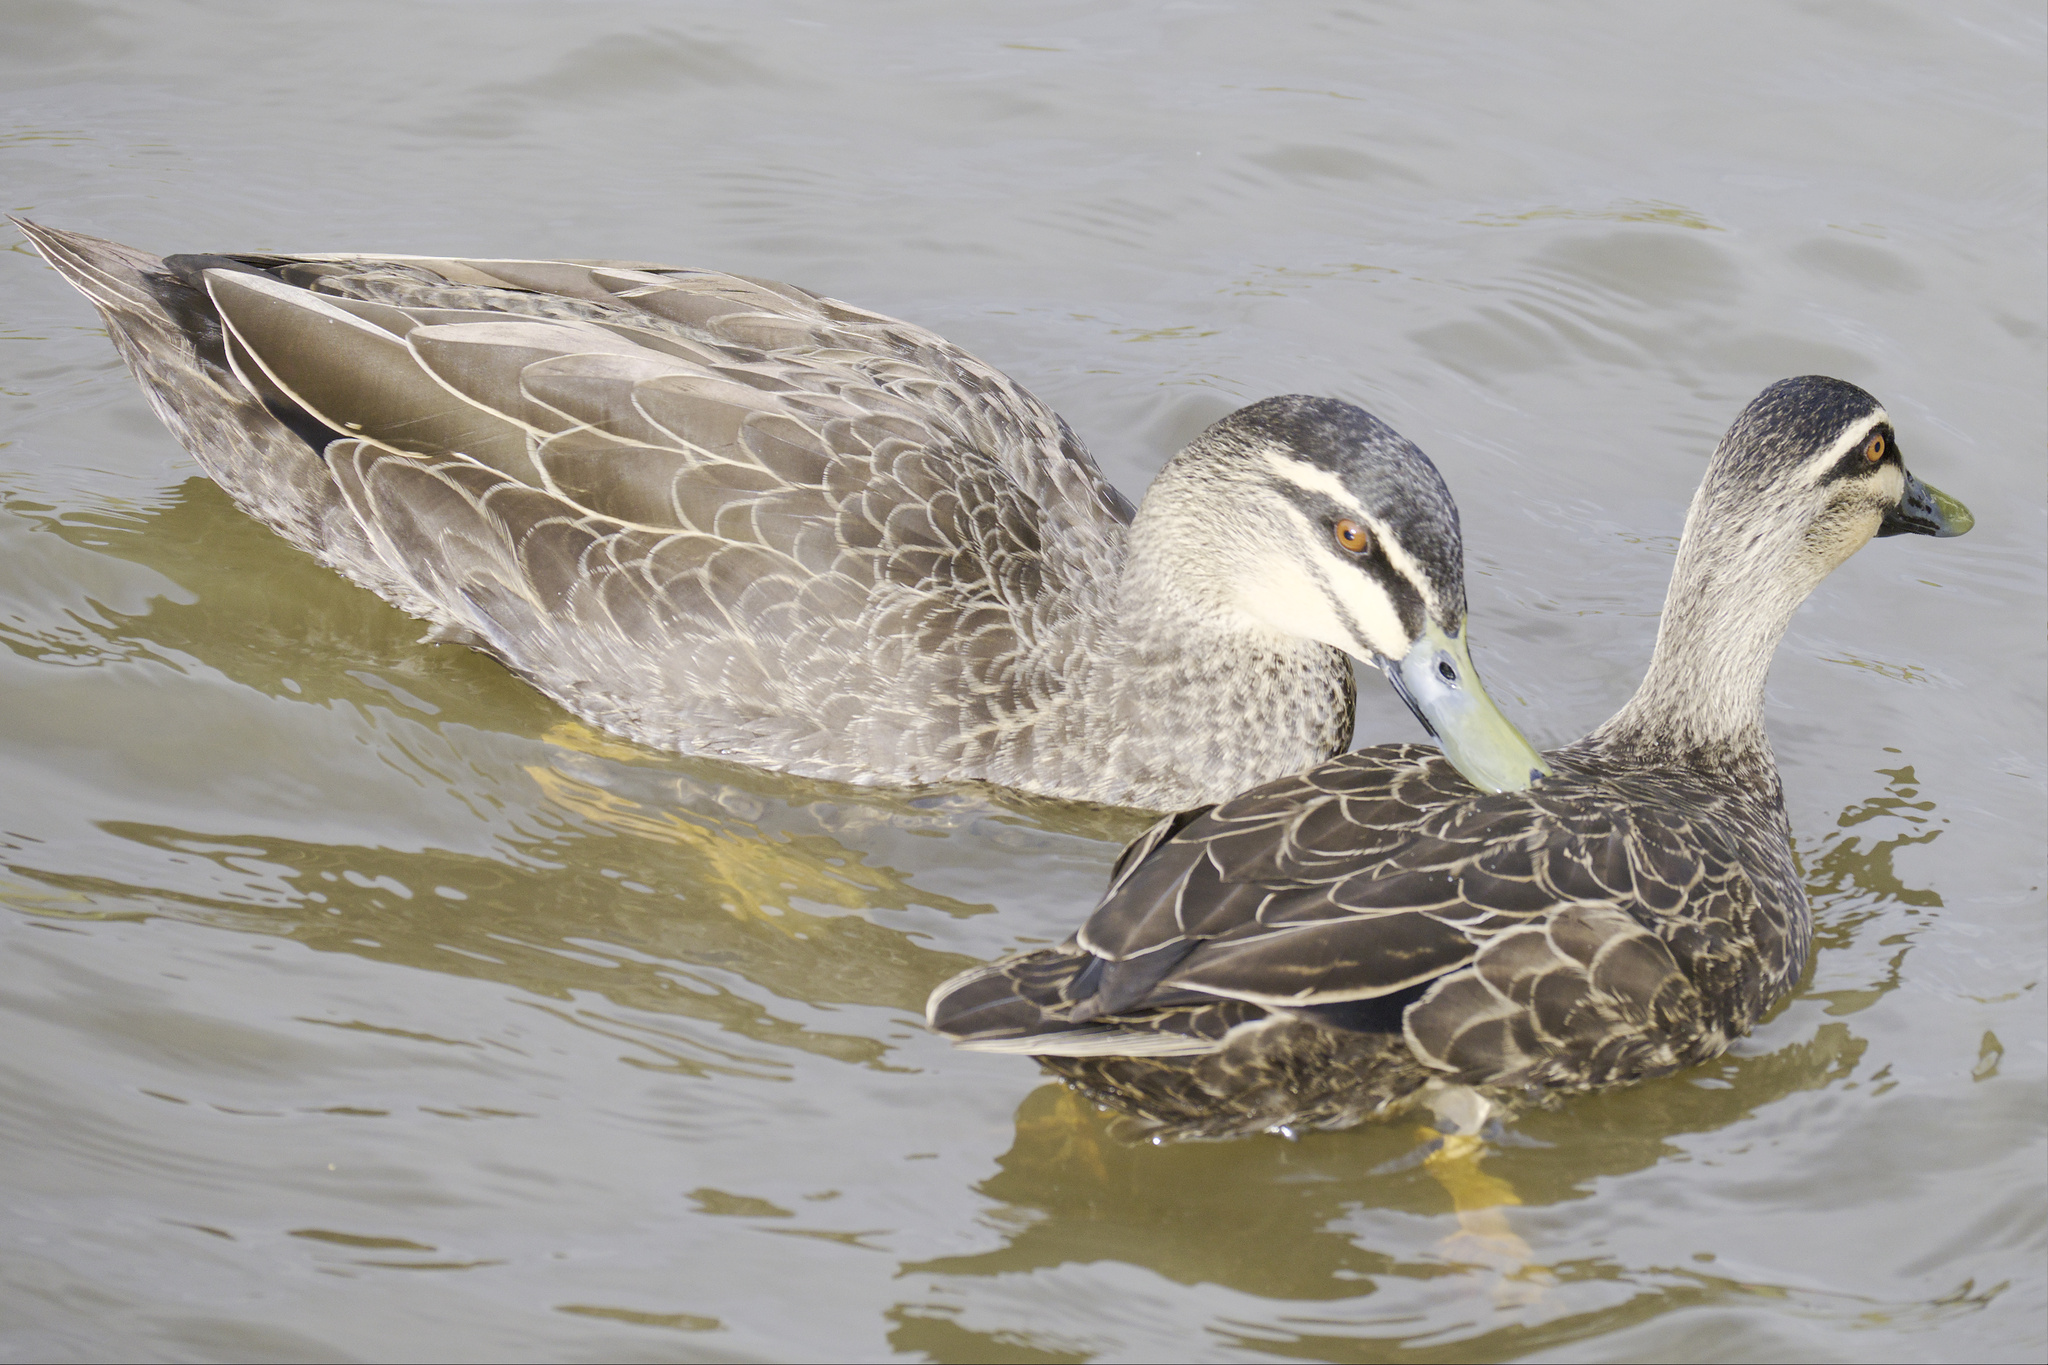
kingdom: Animalia
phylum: Chordata
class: Aves
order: Anseriformes
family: Anatidae
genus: Anas
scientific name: Anas superciliosa
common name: Pacific black duck
